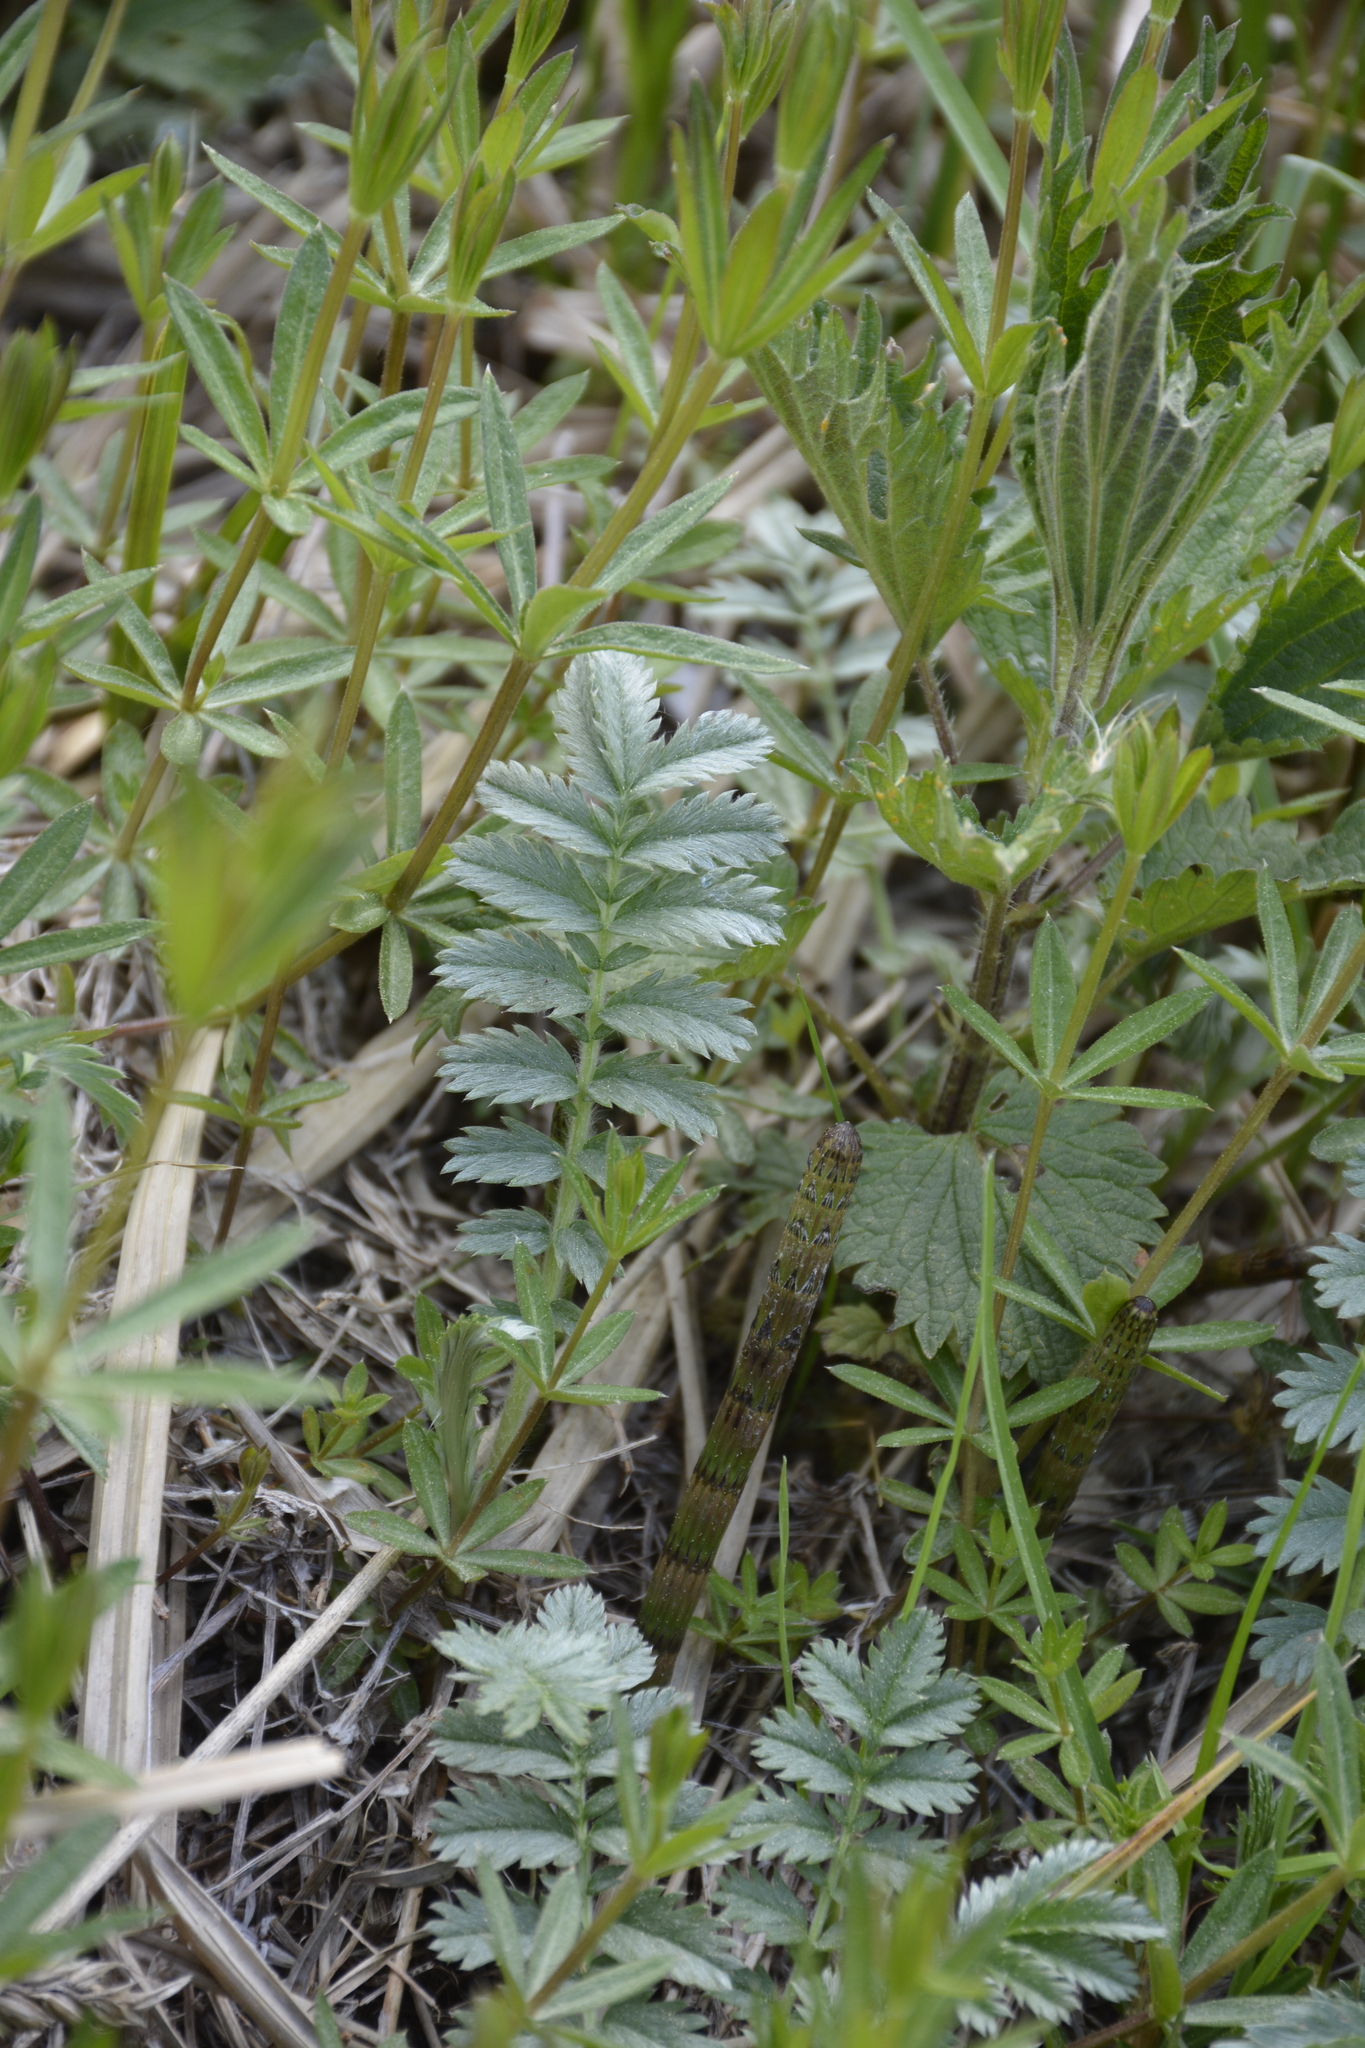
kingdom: Plantae
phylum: Tracheophyta
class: Magnoliopsida
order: Rosales
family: Rosaceae
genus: Argentina
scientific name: Argentina anserina
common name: Common silverweed
